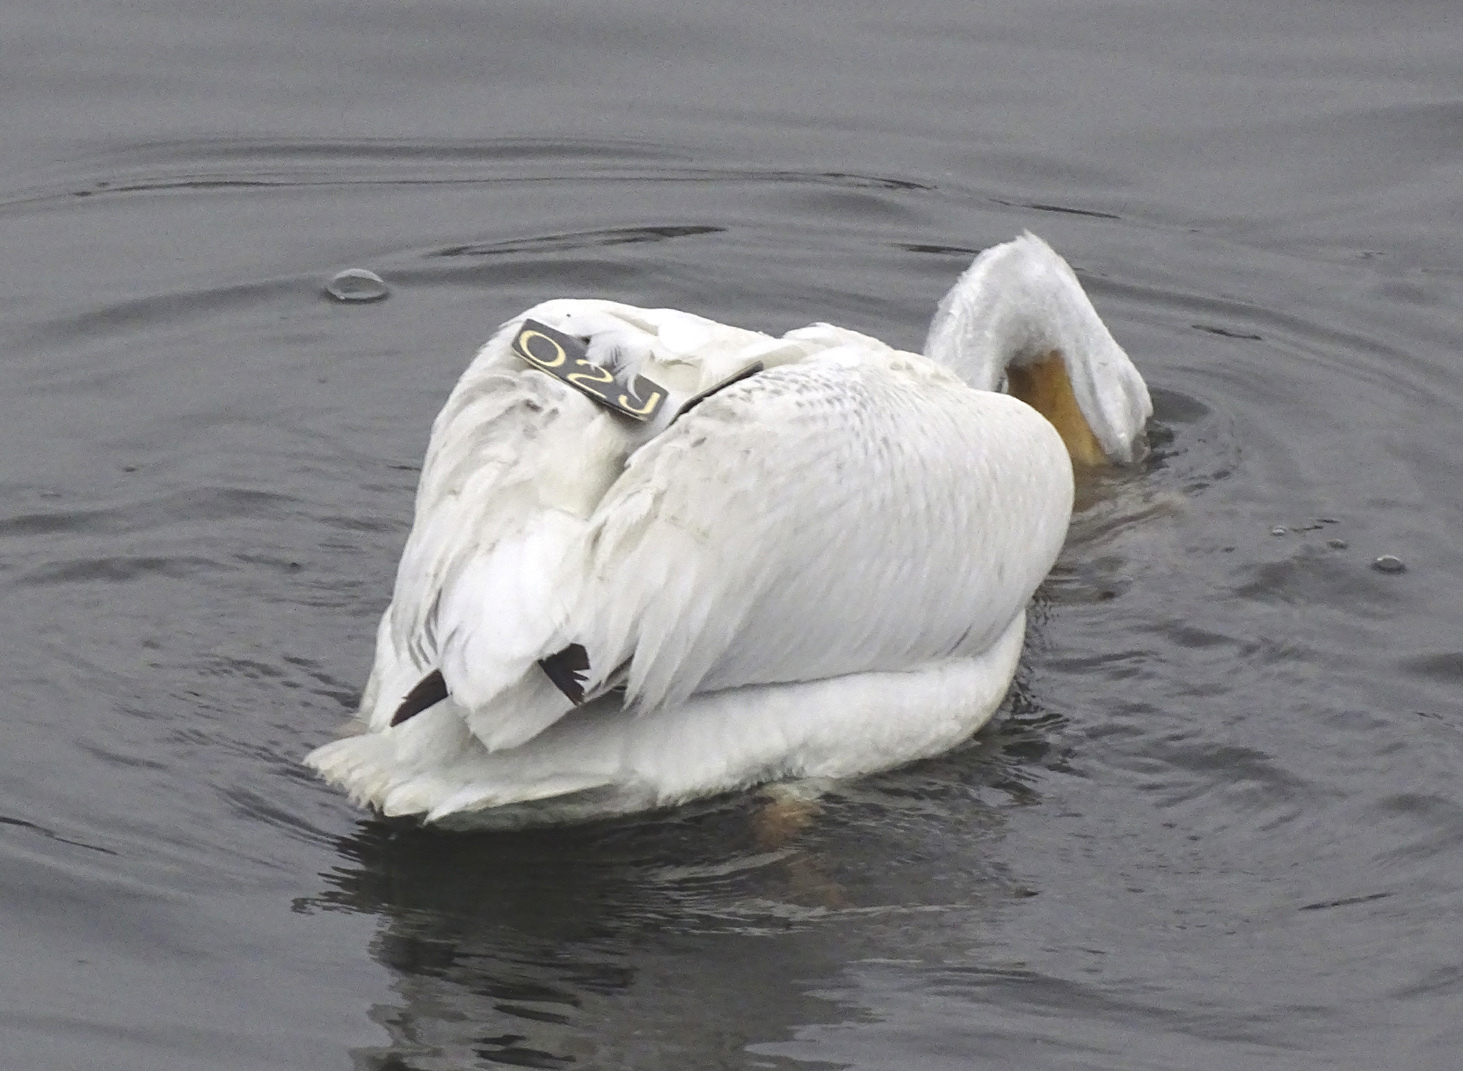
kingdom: Animalia
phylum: Chordata
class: Aves
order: Pelecaniformes
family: Pelecanidae
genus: Pelecanus
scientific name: Pelecanus erythrorhynchos
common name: American white pelican
